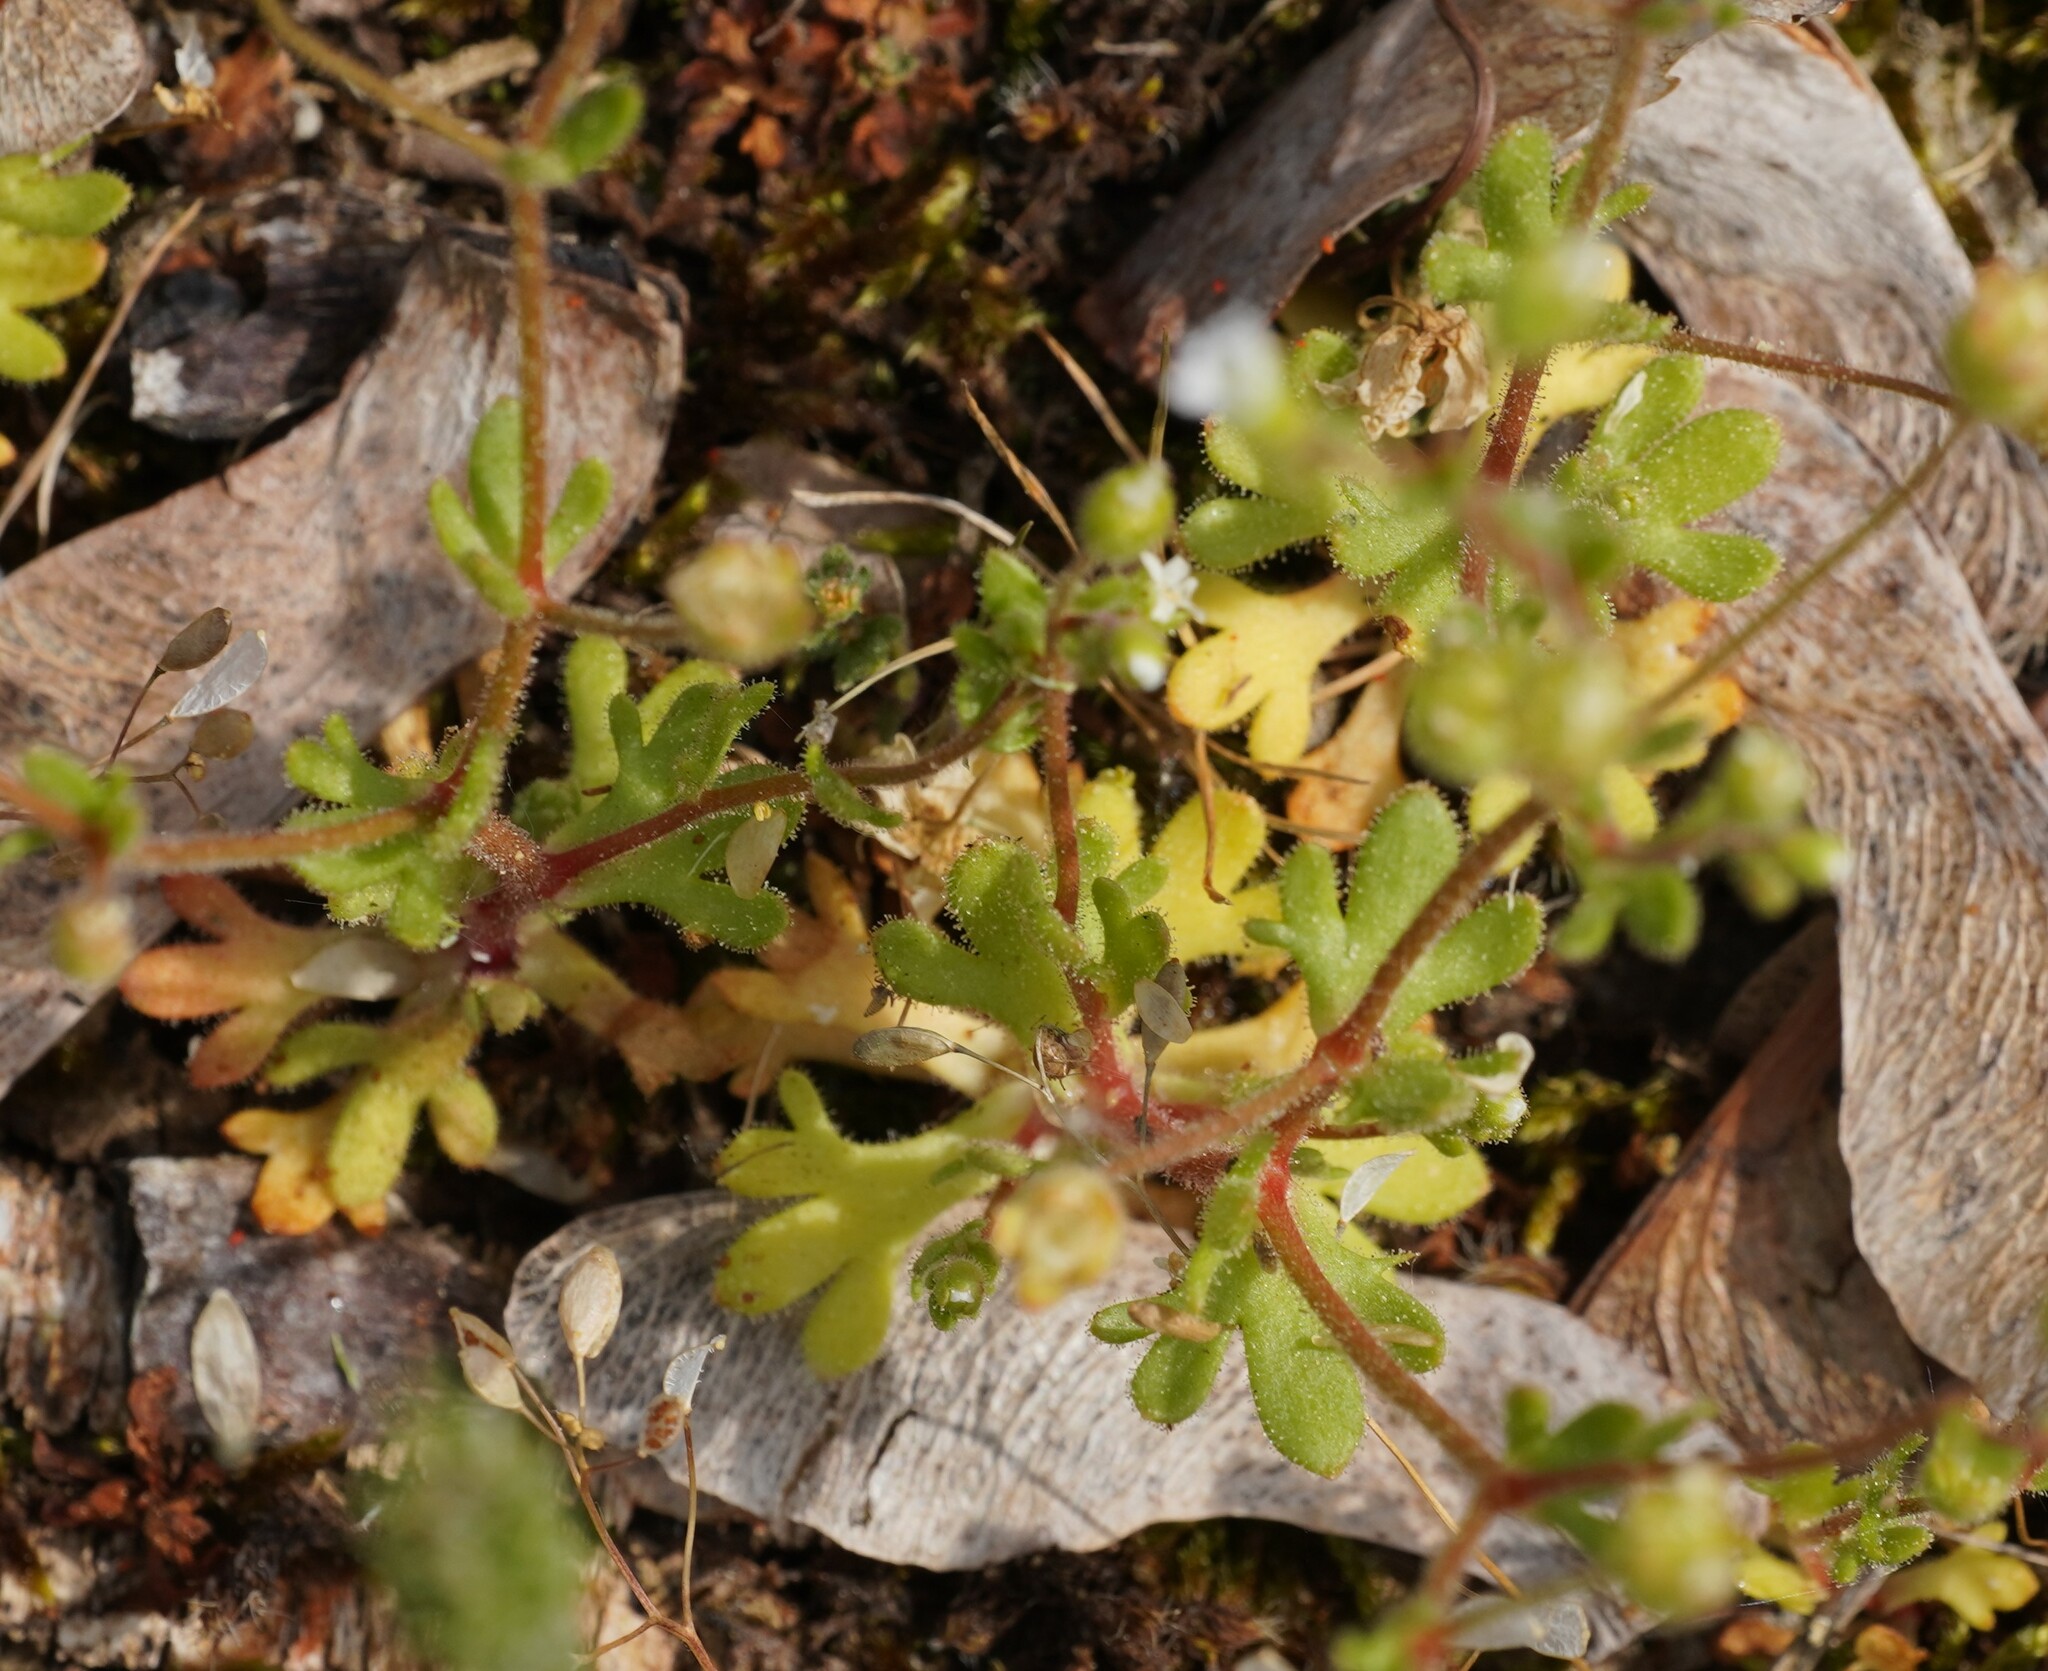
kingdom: Plantae
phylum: Tracheophyta
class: Magnoliopsida
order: Saxifragales
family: Saxifragaceae
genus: Saxifraga
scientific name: Saxifraga tridactylites
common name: Rue-leaved saxifrage
